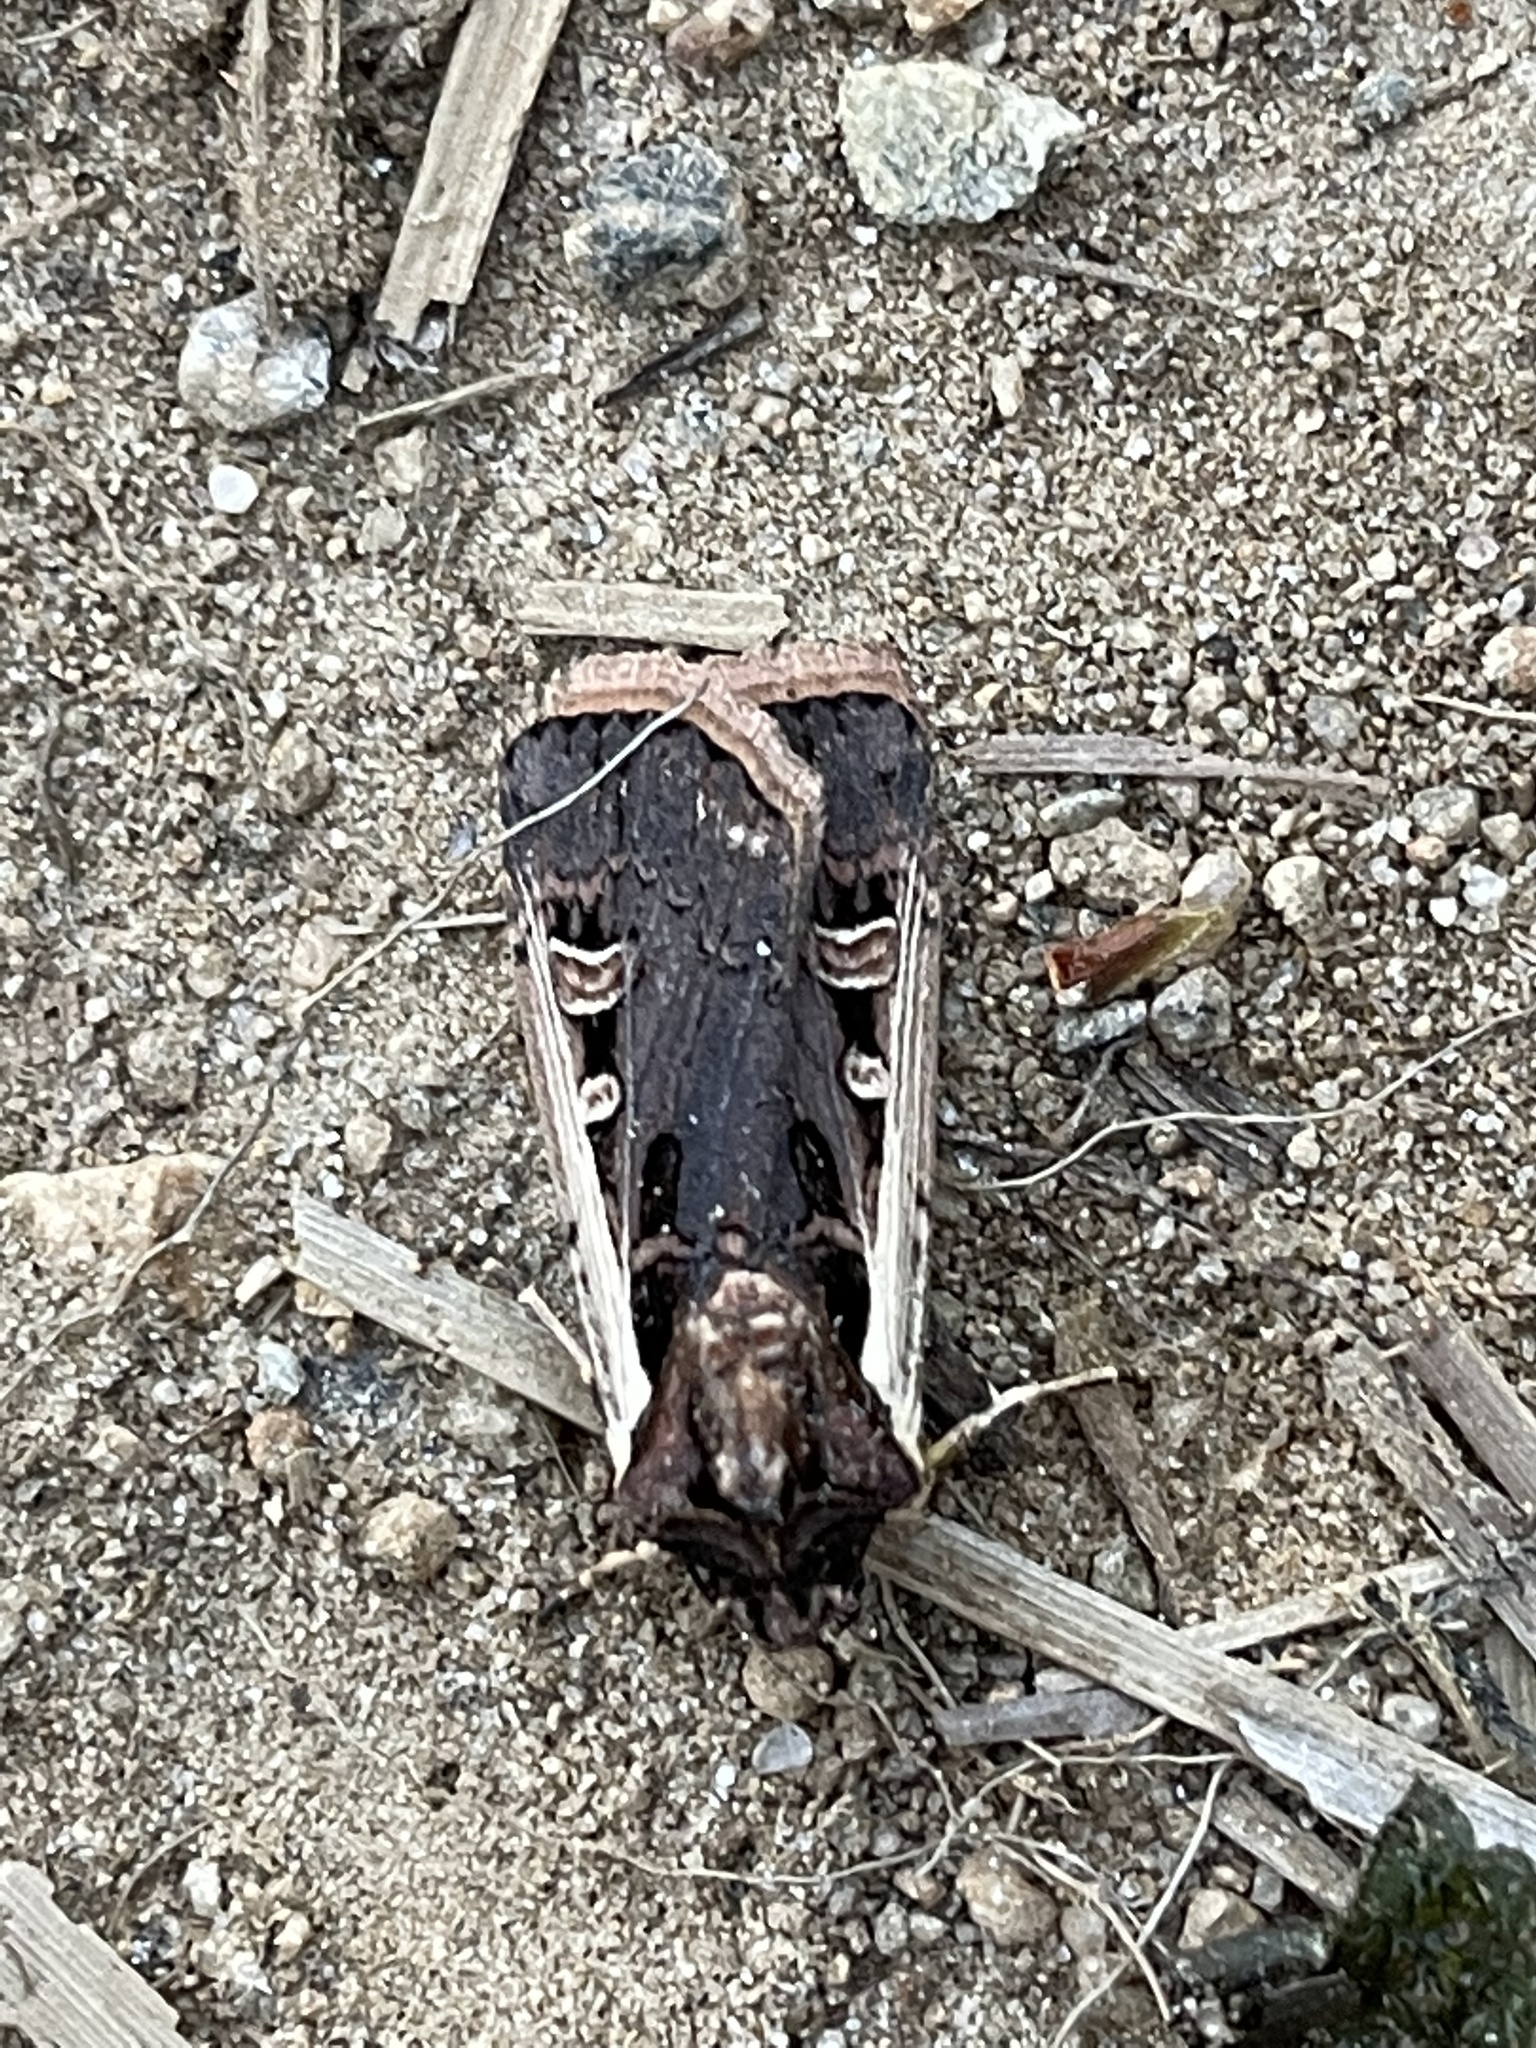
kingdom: Animalia
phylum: Arthropoda
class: Insecta
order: Lepidoptera
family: Noctuidae
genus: Striacosta
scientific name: Striacosta albicosta
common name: Western bean cutworm moth
